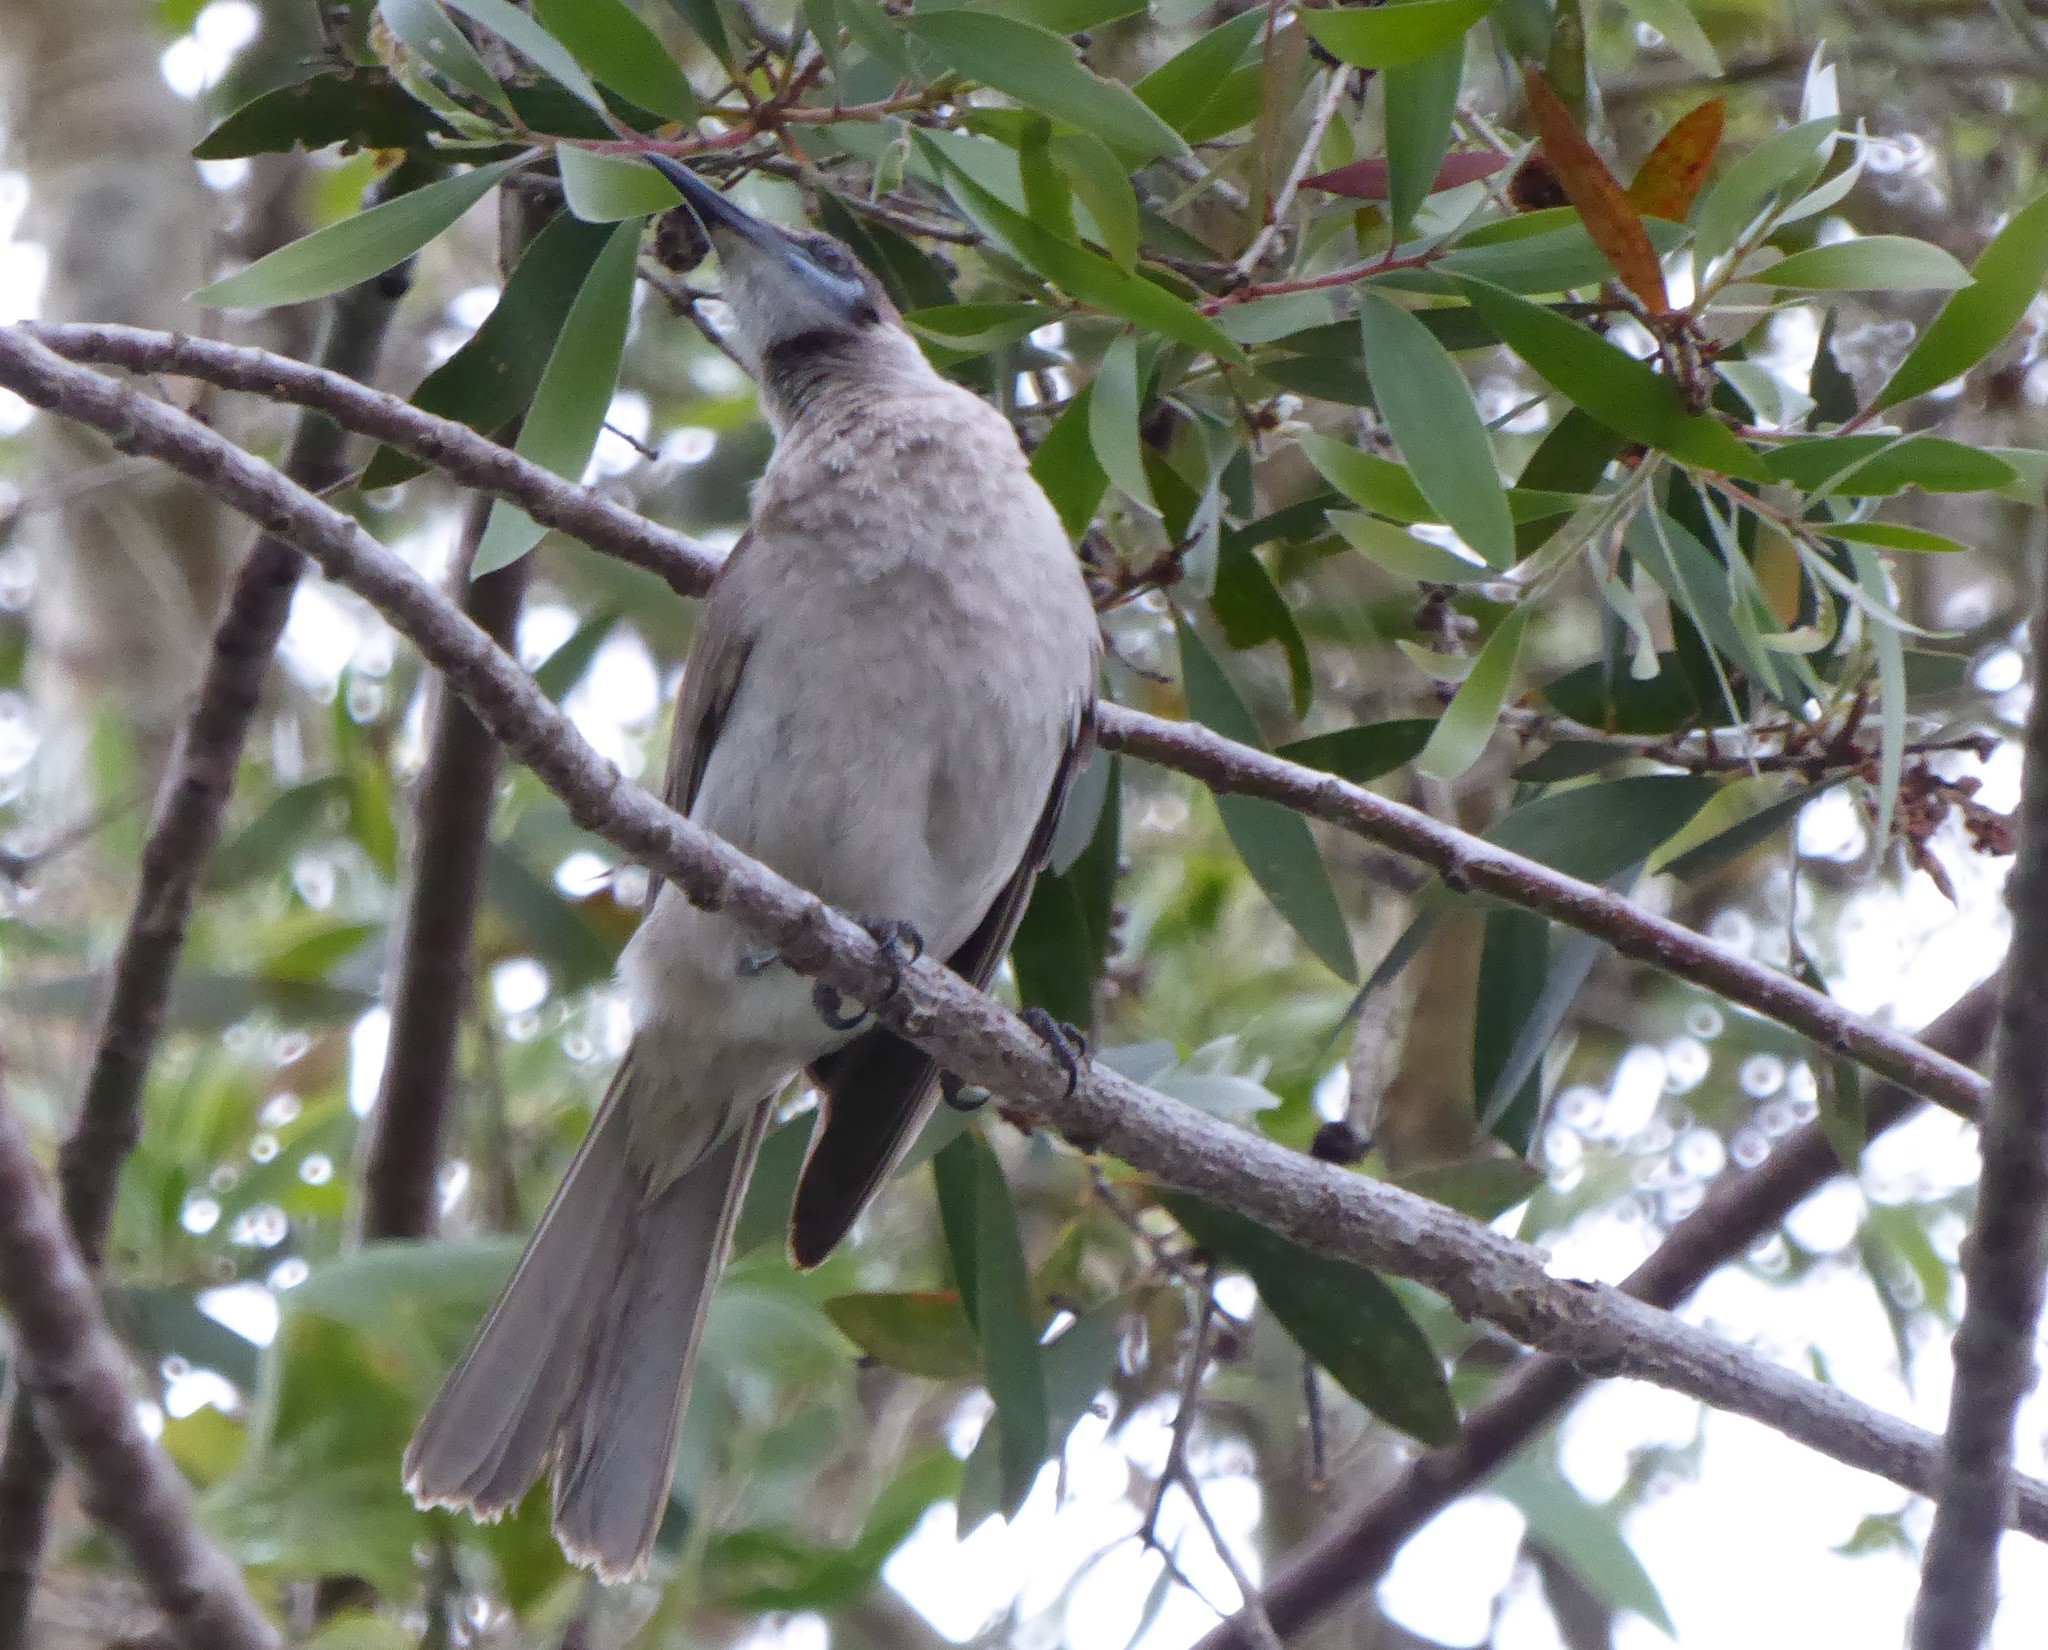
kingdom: Animalia
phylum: Chordata
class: Aves
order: Passeriformes
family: Meliphagidae
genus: Philemon
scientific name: Philemon citreogularis
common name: Little friarbird
